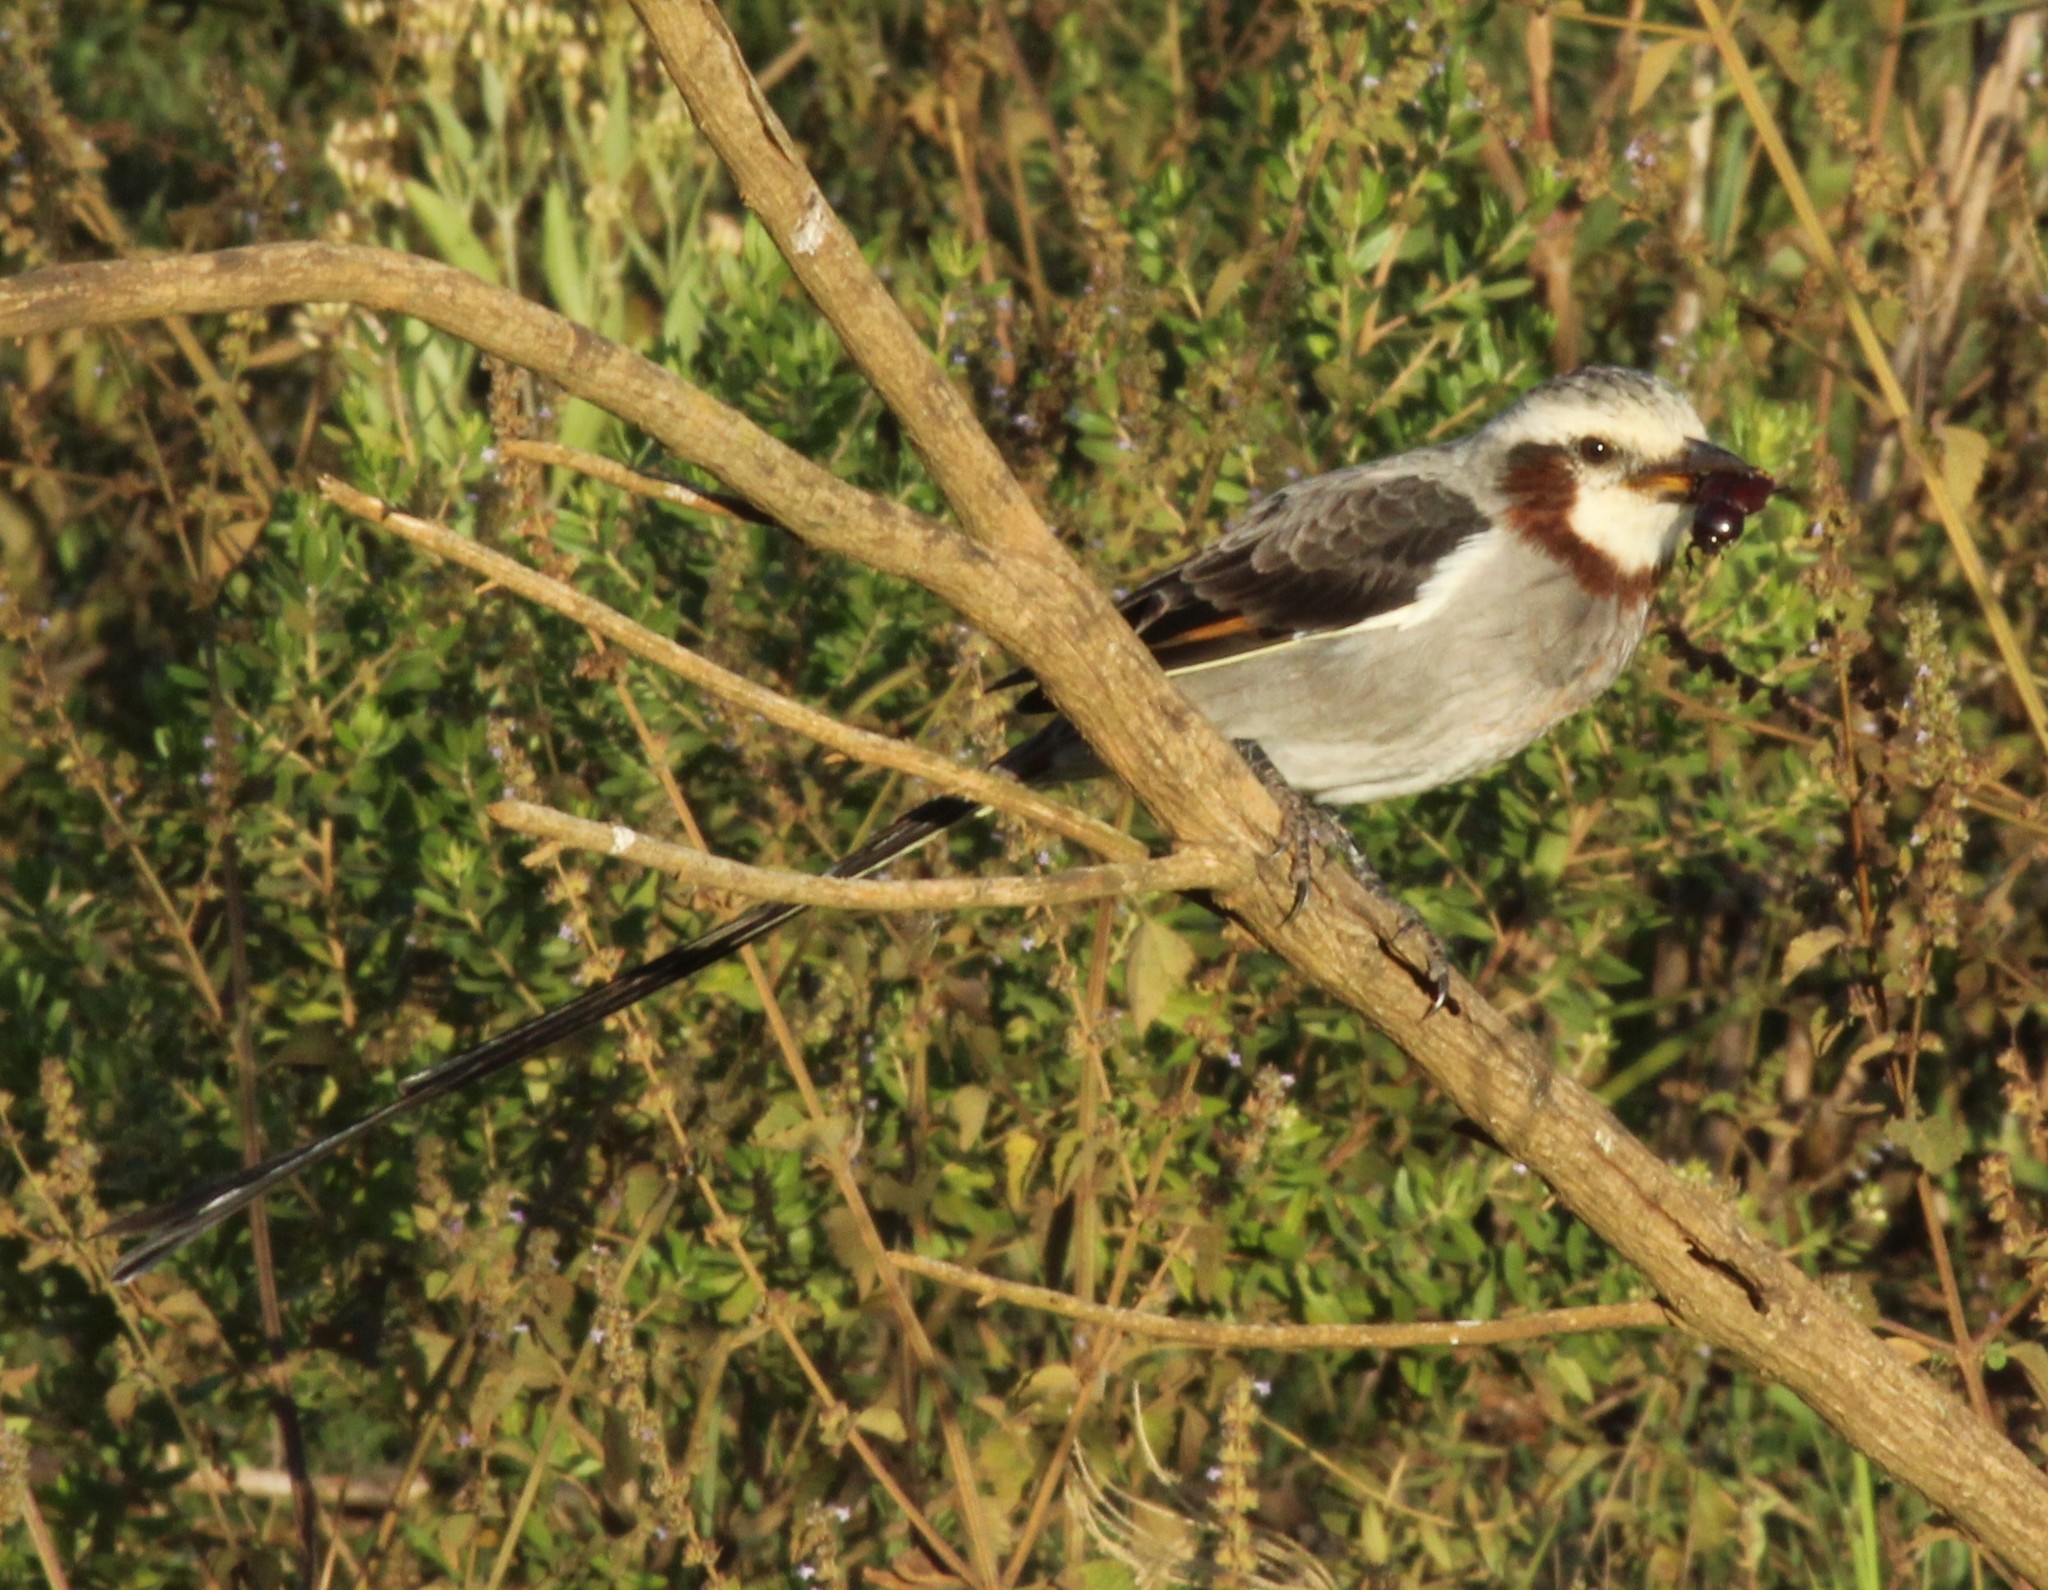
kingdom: Animalia
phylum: Chordata
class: Aves
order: Passeriformes
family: Tyrannidae
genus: Gubernetes
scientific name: Gubernetes yetapa
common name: Streamer-tailed tyrant
